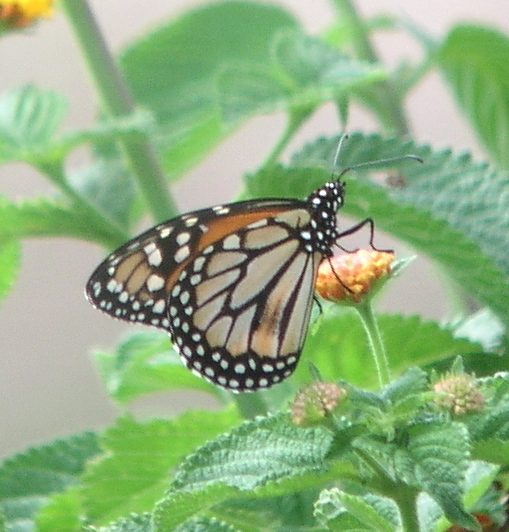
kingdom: Animalia
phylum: Arthropoda
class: Insecta
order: Lepidoptera
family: Nymphalidae
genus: Danaus
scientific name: Danaus erippus
